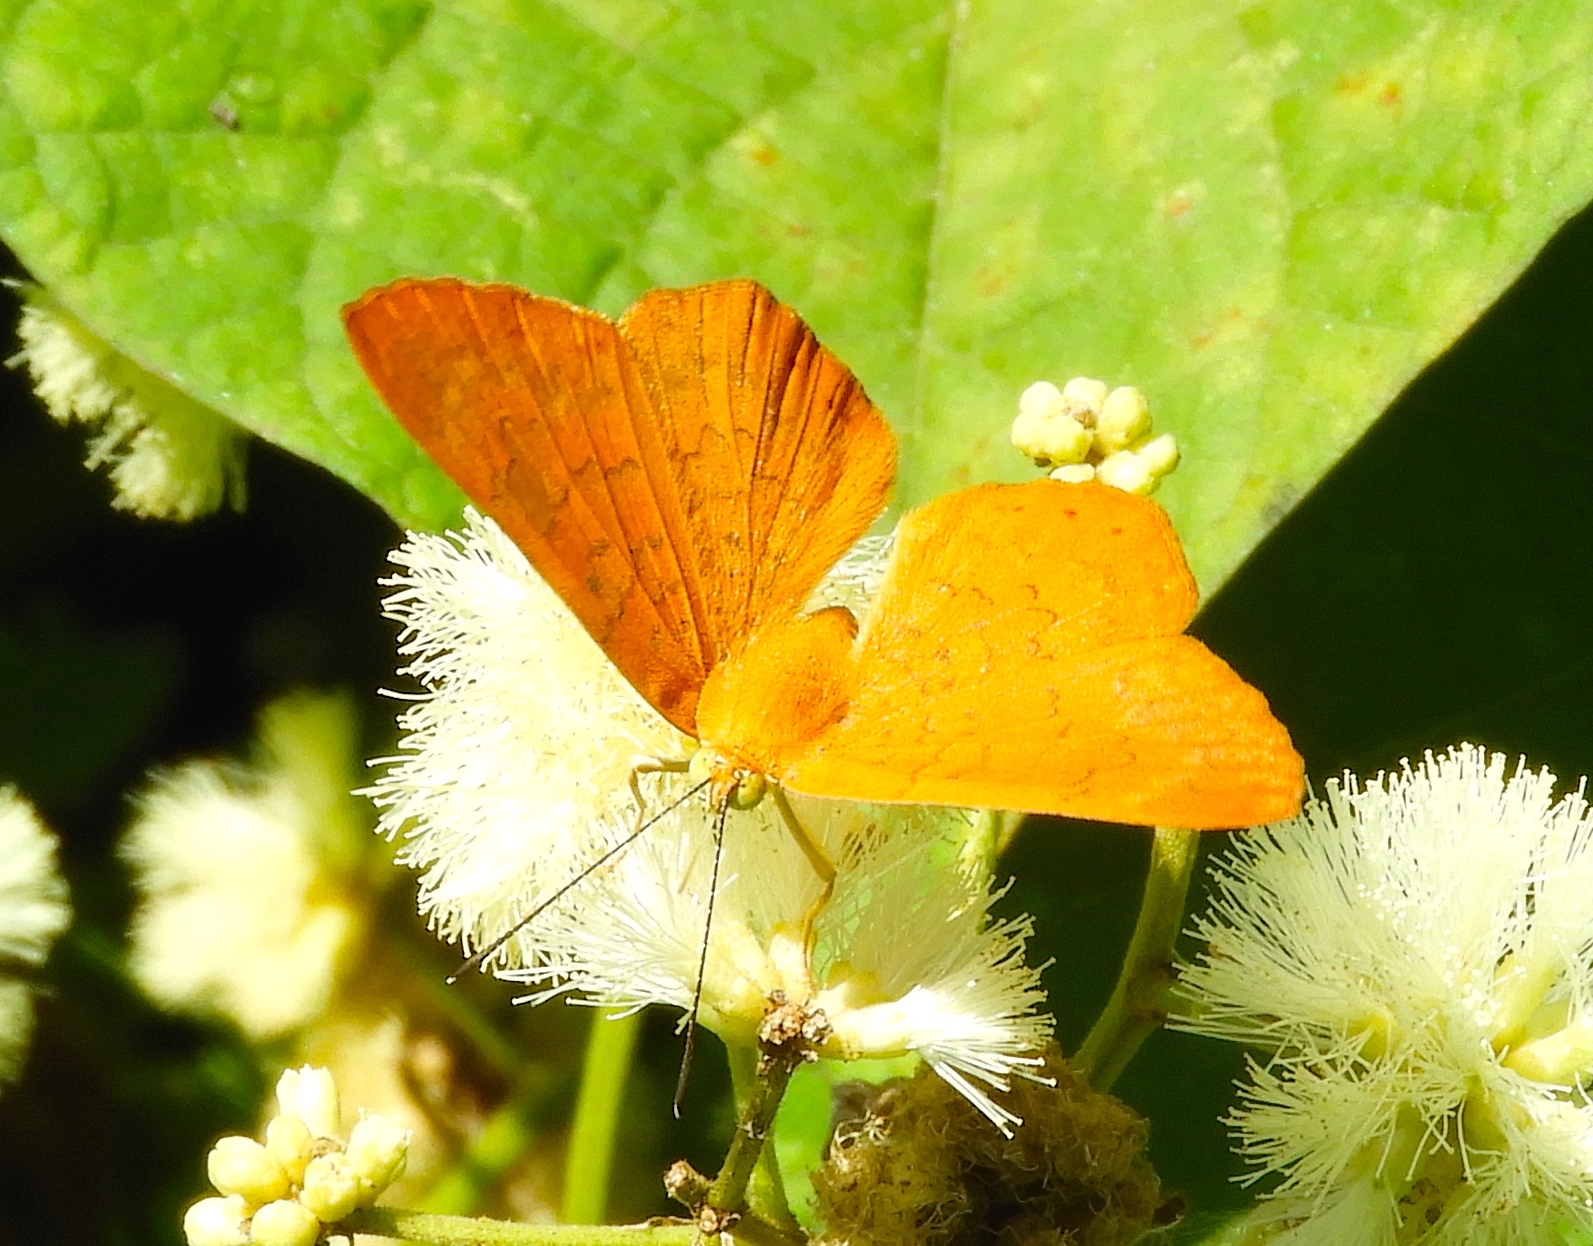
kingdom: Animalia
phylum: Arthropoda
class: Insecta
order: Lepidoptera
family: Lycaenidae
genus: Emesis
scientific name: Emesis vulpina
